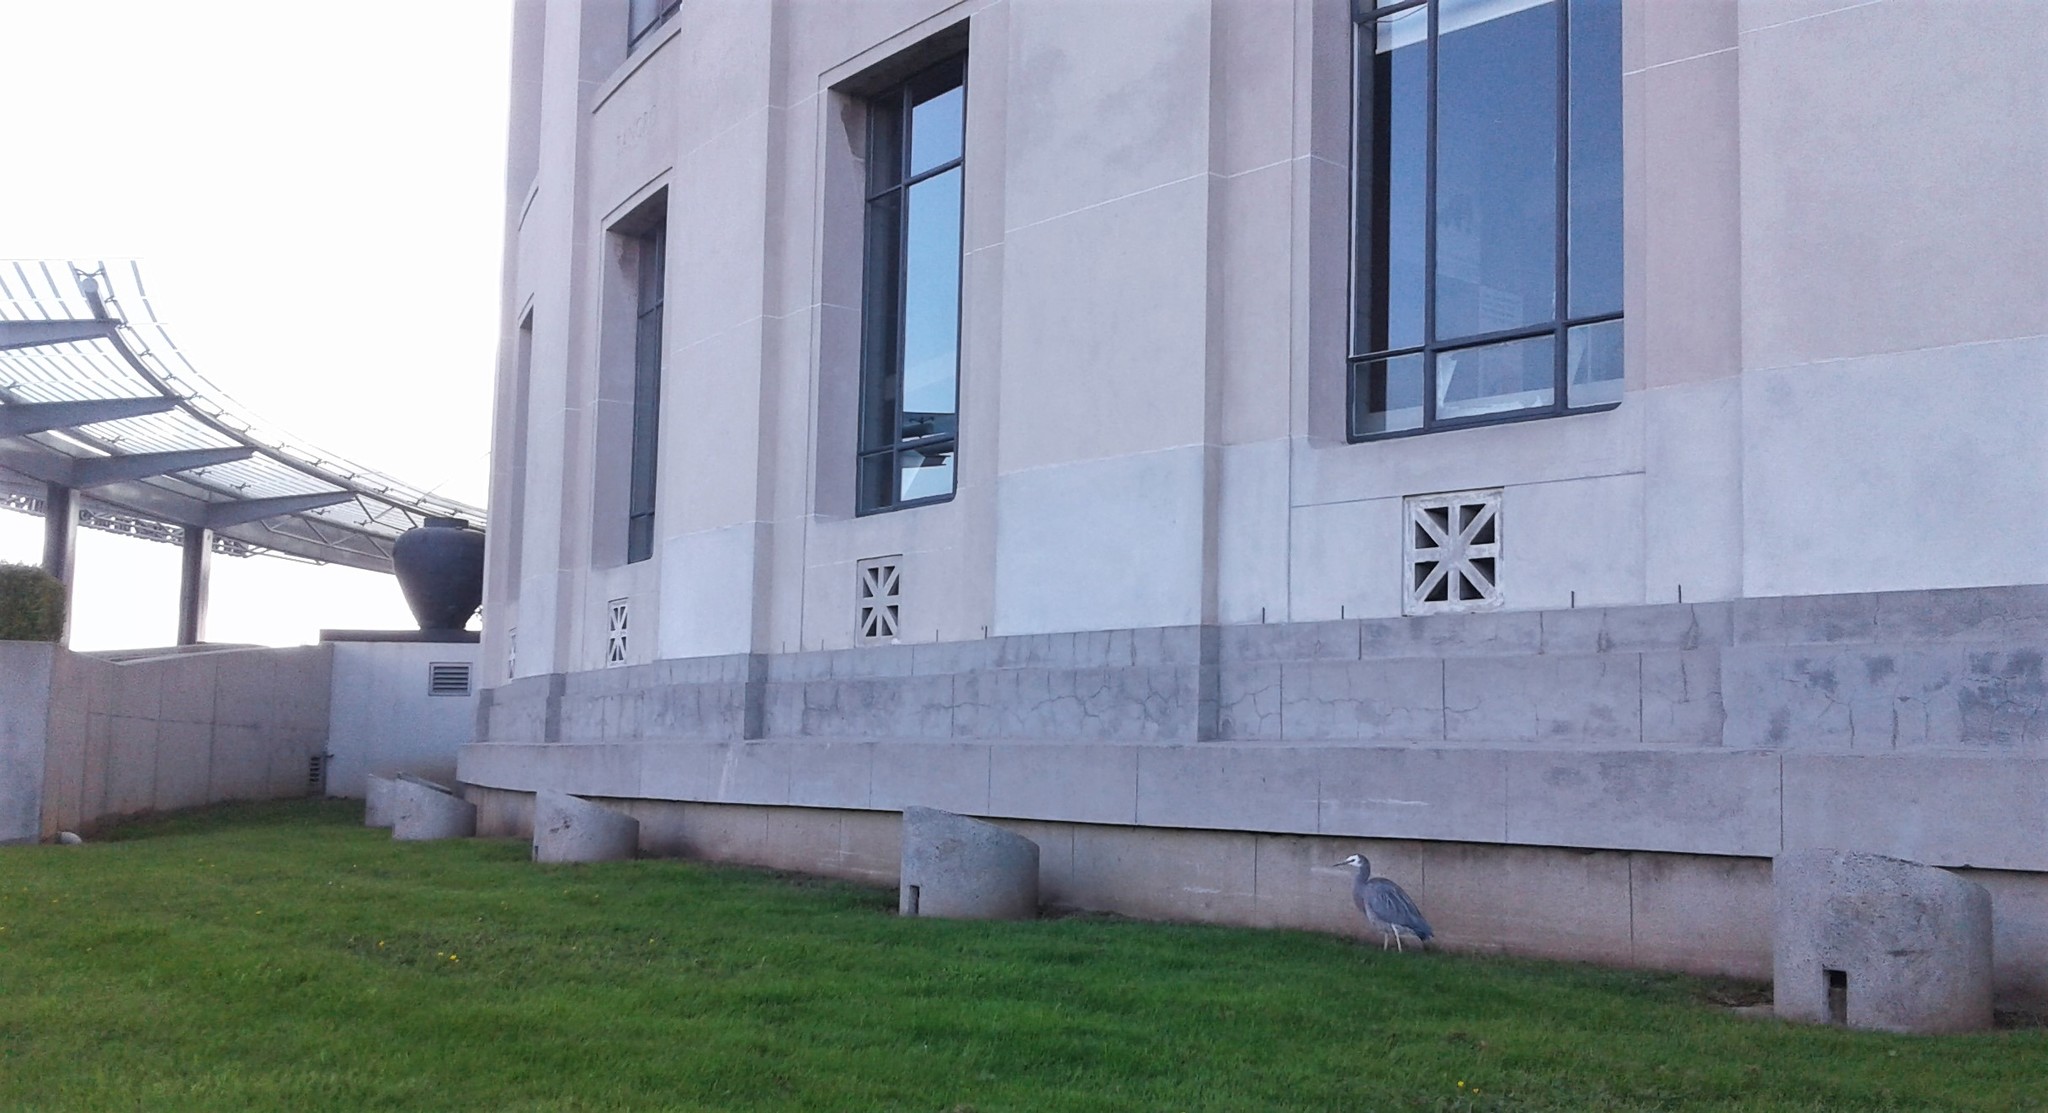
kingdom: Animalia
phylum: Chordata
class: Aves
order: Pelecaniformes
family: Ardeidae
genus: Egretta
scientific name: Egretta novaehollandiae
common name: White-faced heron
